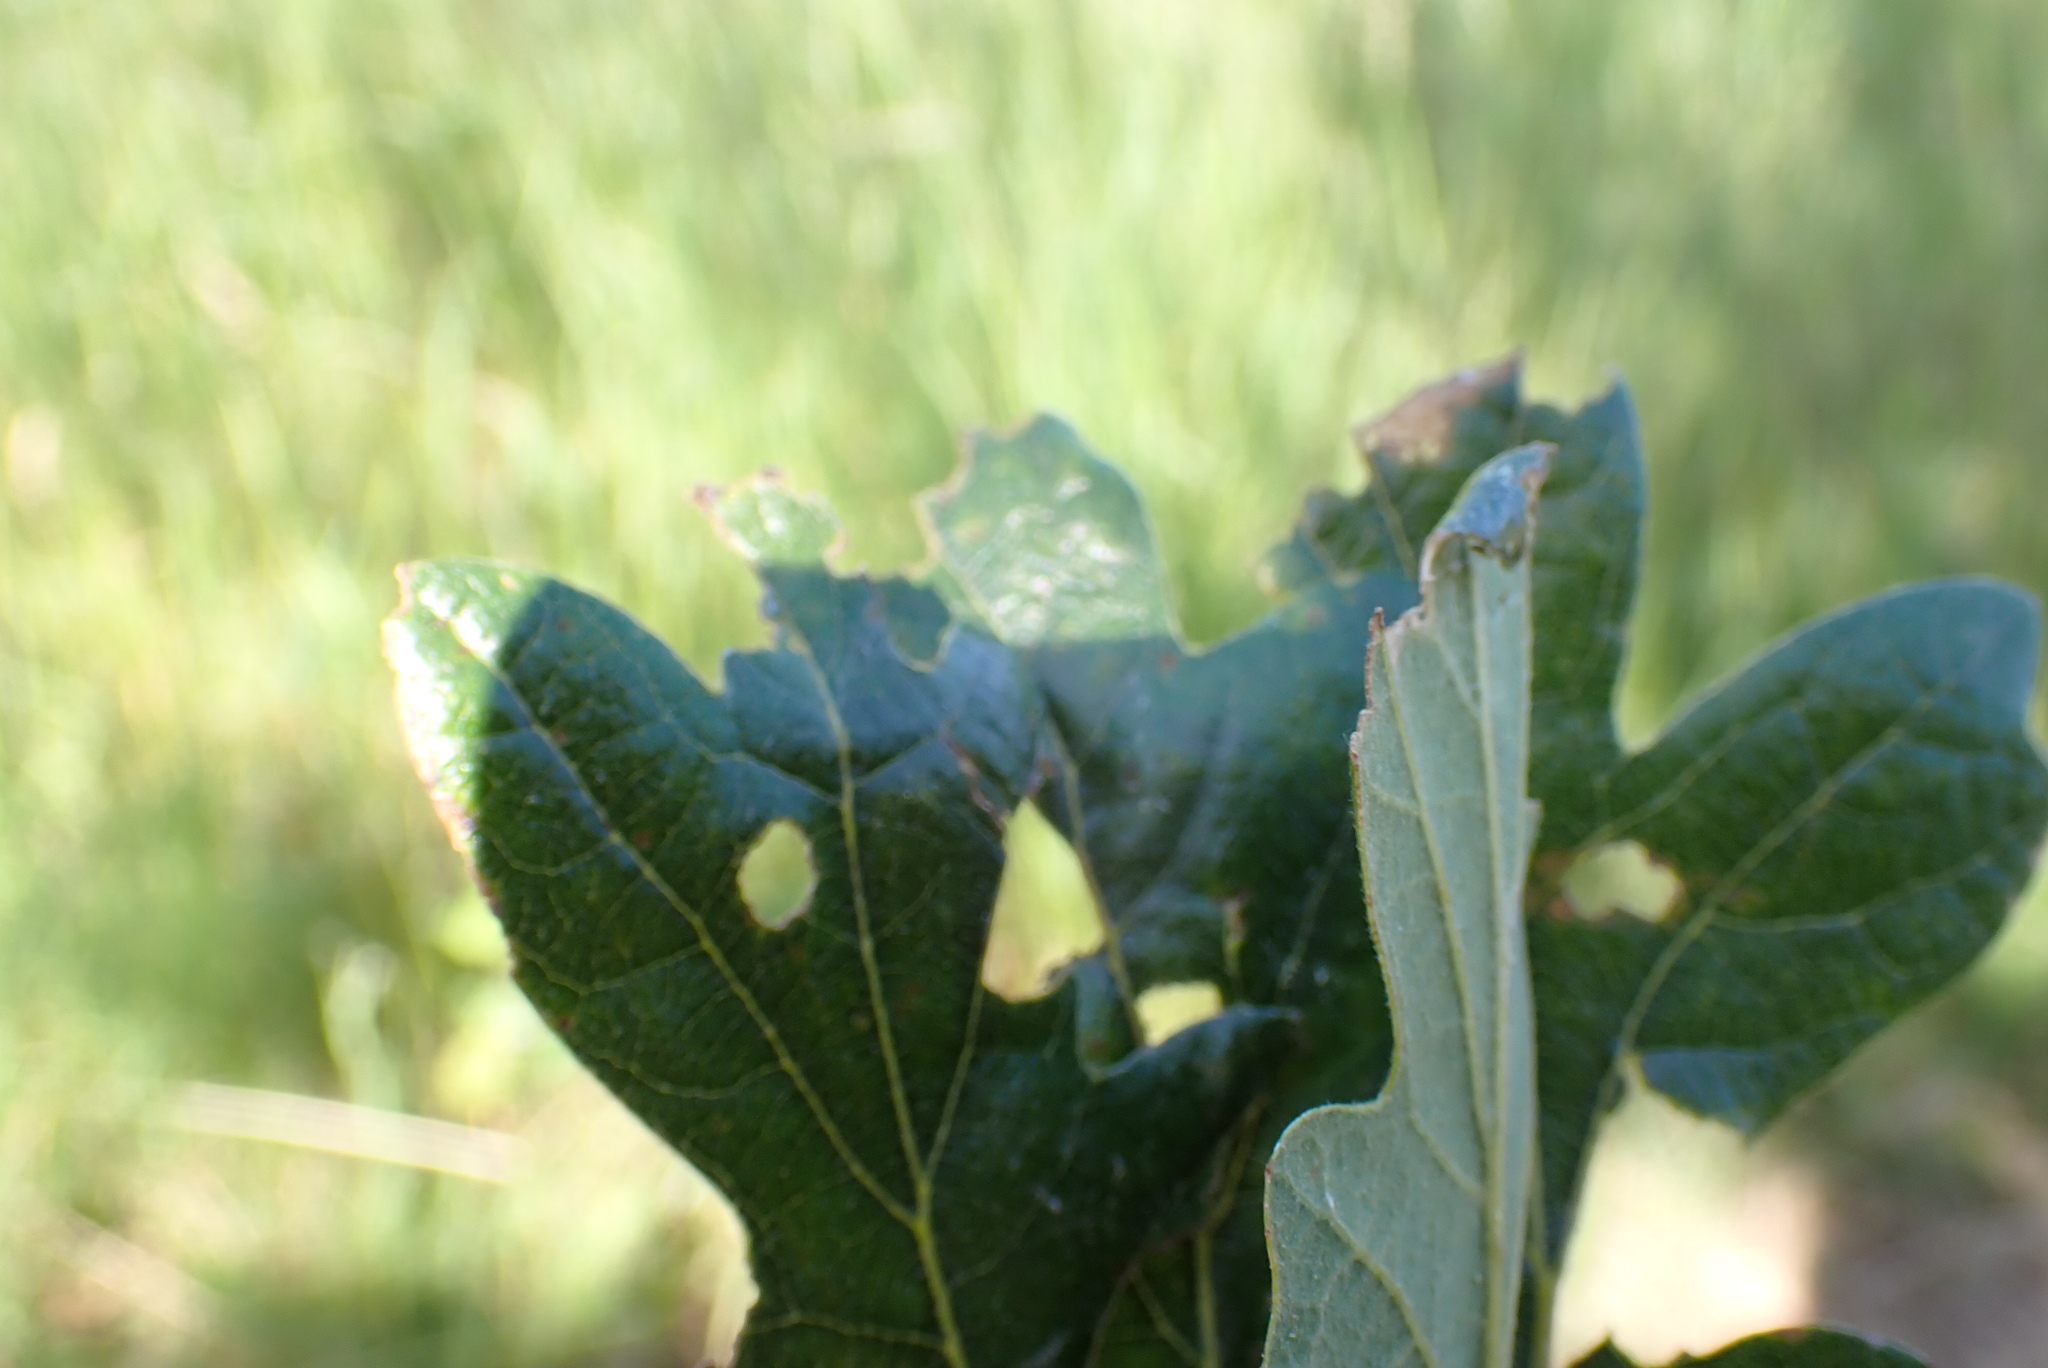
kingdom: Plantae
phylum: Tracheophyta
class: Magnoliopsida
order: Fagales
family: Fagaceae
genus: Quercus
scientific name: Quercus garryana
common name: Garry oak
